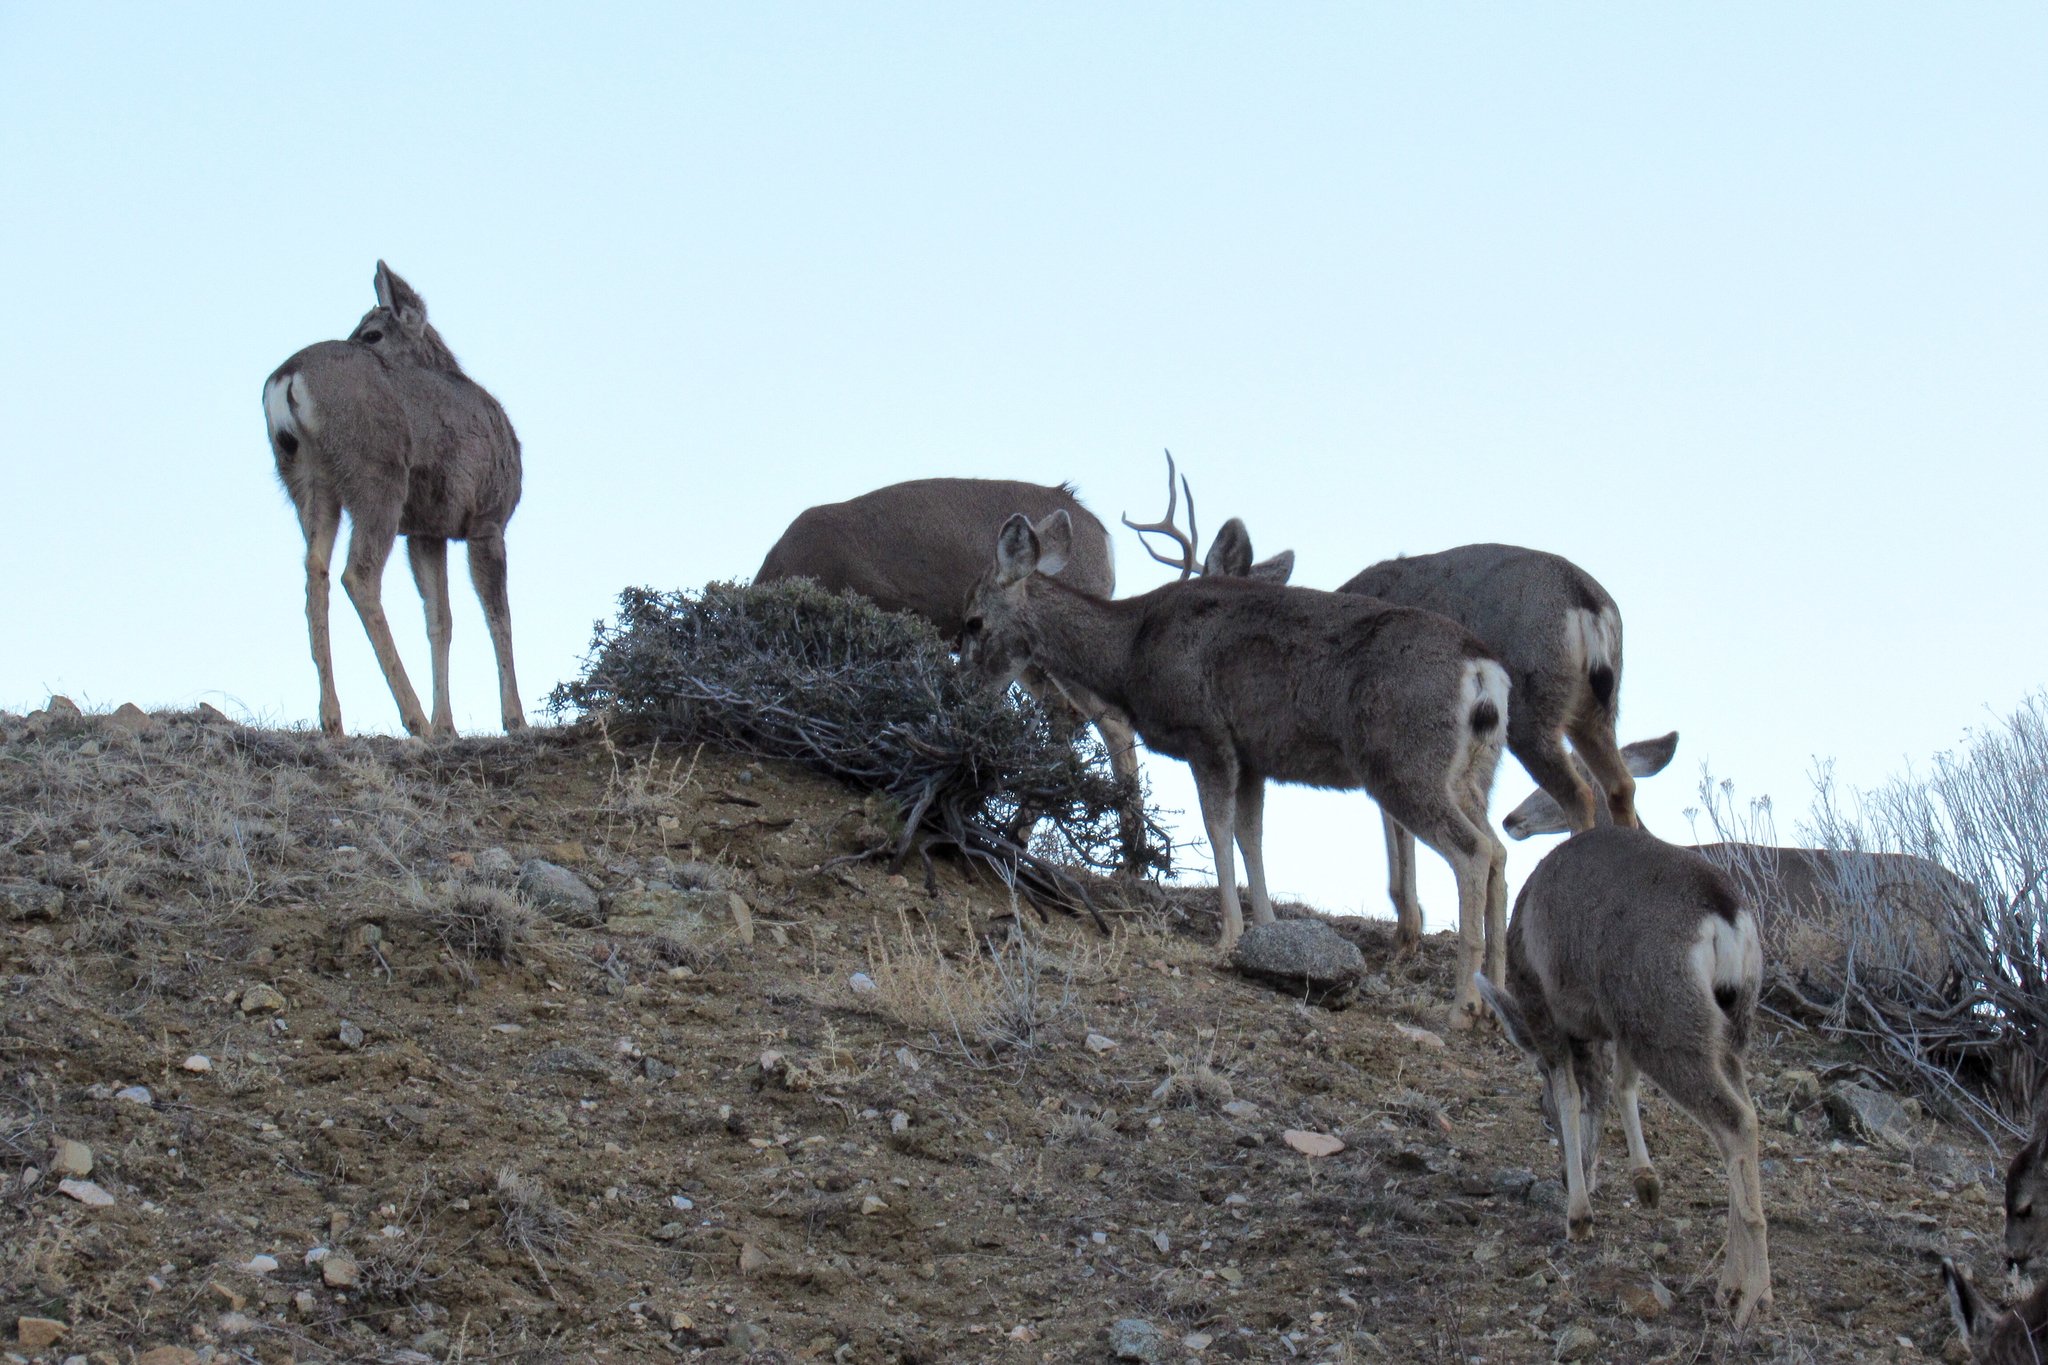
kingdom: Animalia
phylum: Chordata
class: Mammalia
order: Artiodactyla
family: Cervidae
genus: Odocoileus
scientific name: Odocoileus hemionus
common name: Mule deer
